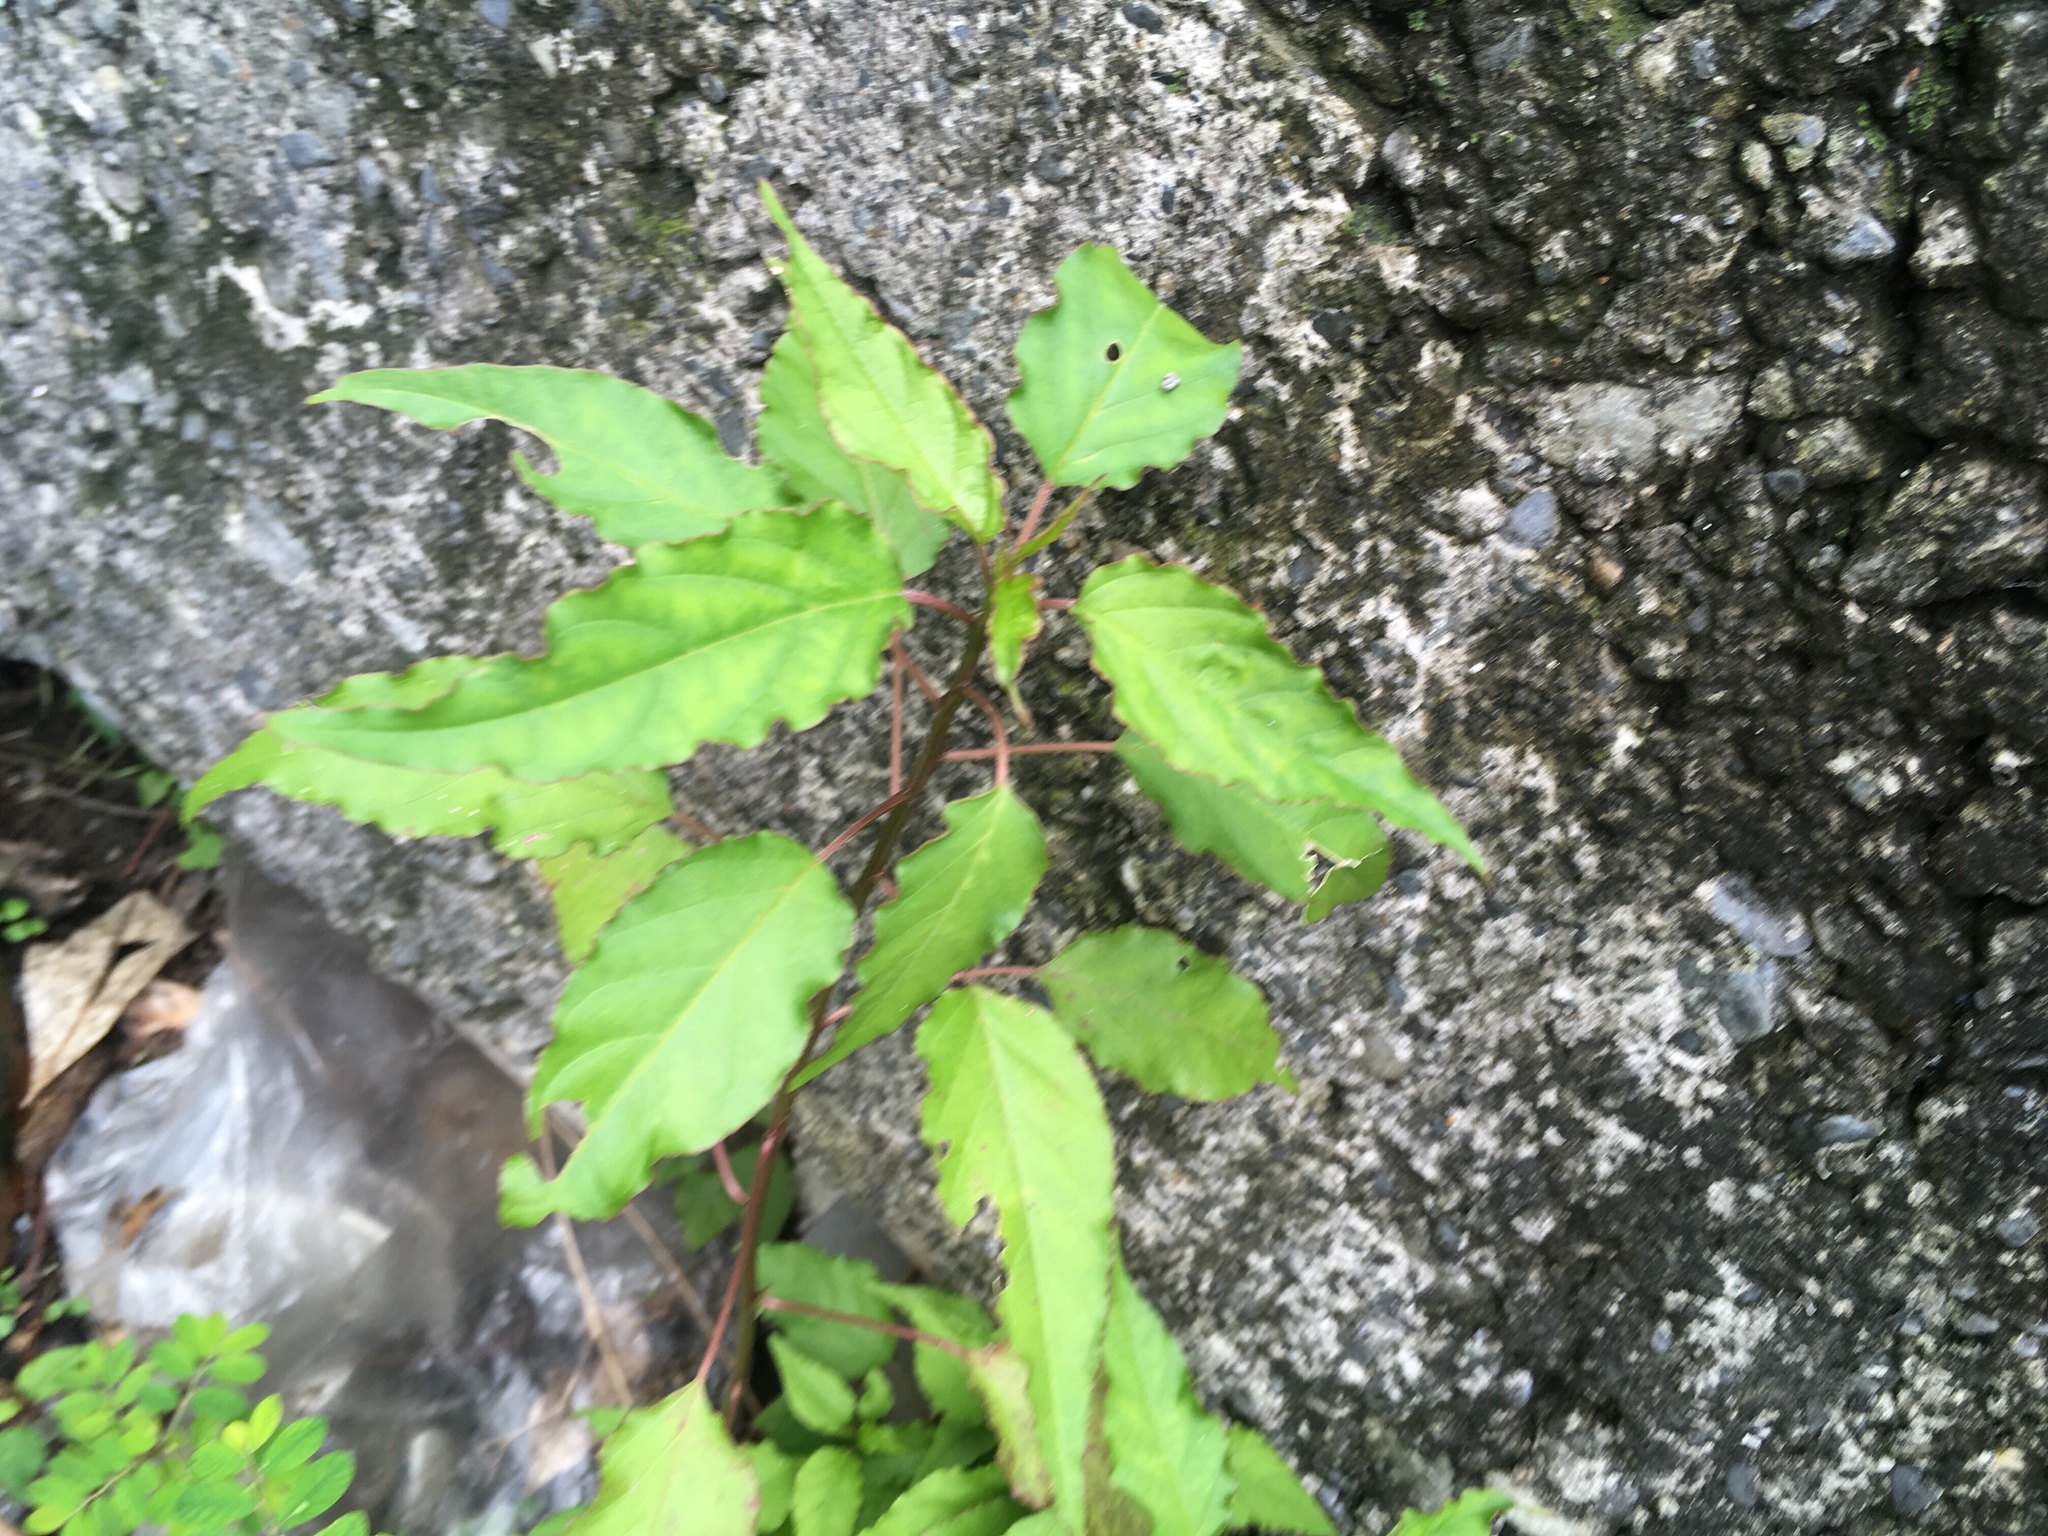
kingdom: Plantae
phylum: Tracheophyta
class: Magnoliopsida
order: Caryophyllales
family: Phytolaccaceae
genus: Rivina
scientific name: Rivina humilis
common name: Rougeplant
